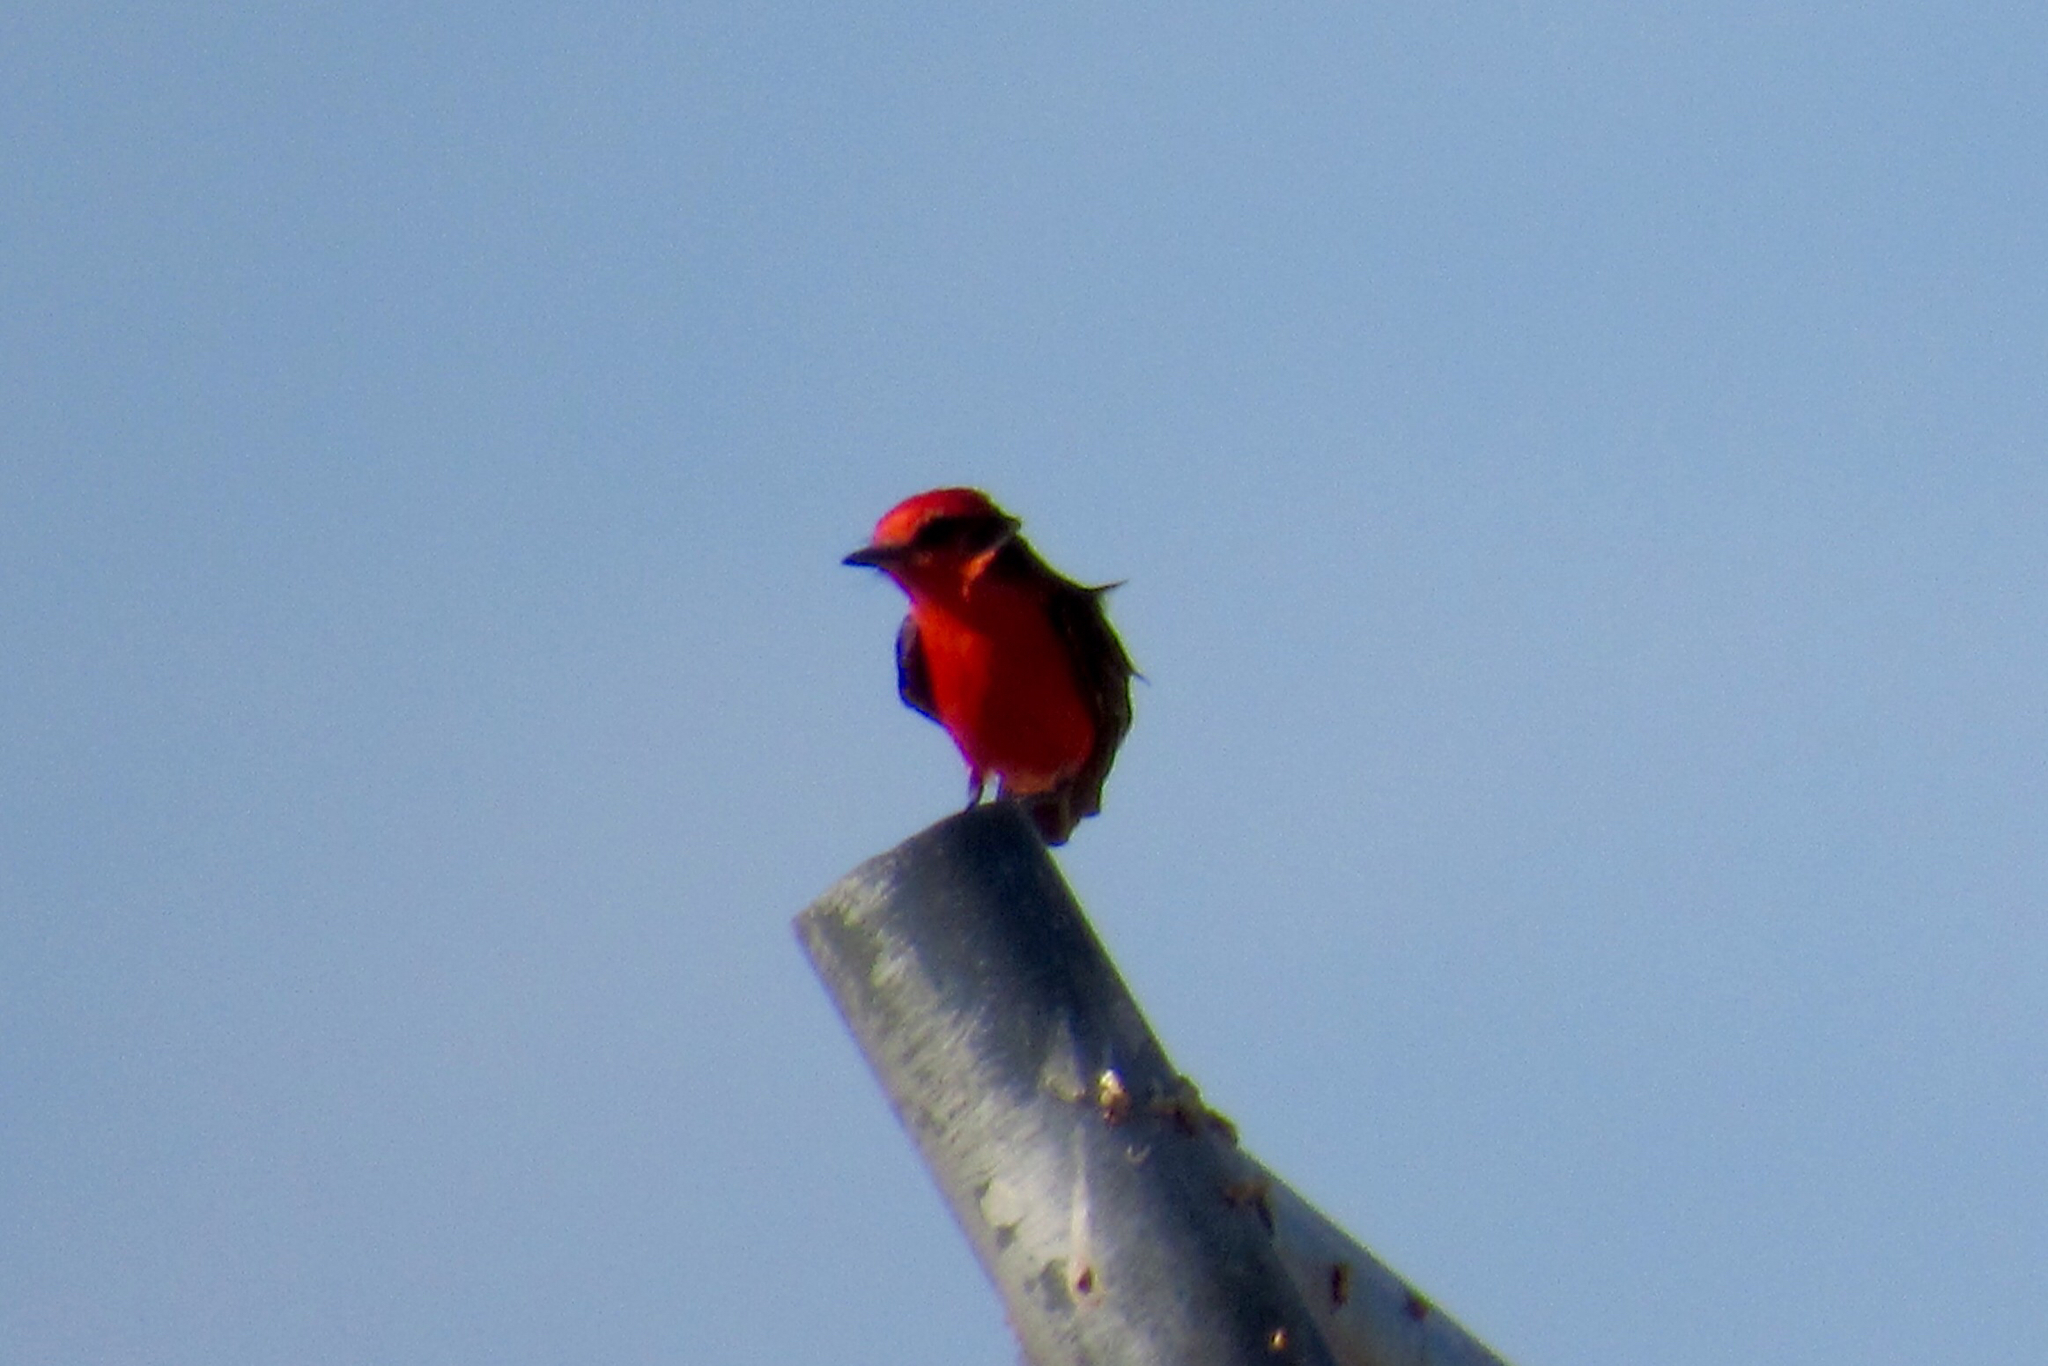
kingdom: Animalia
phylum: Chordata
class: Aves
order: Passeriformes
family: Tyrannidae
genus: Pyrocephalus
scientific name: Pyrocephalus rubinus
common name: Vermilion flycatcher
